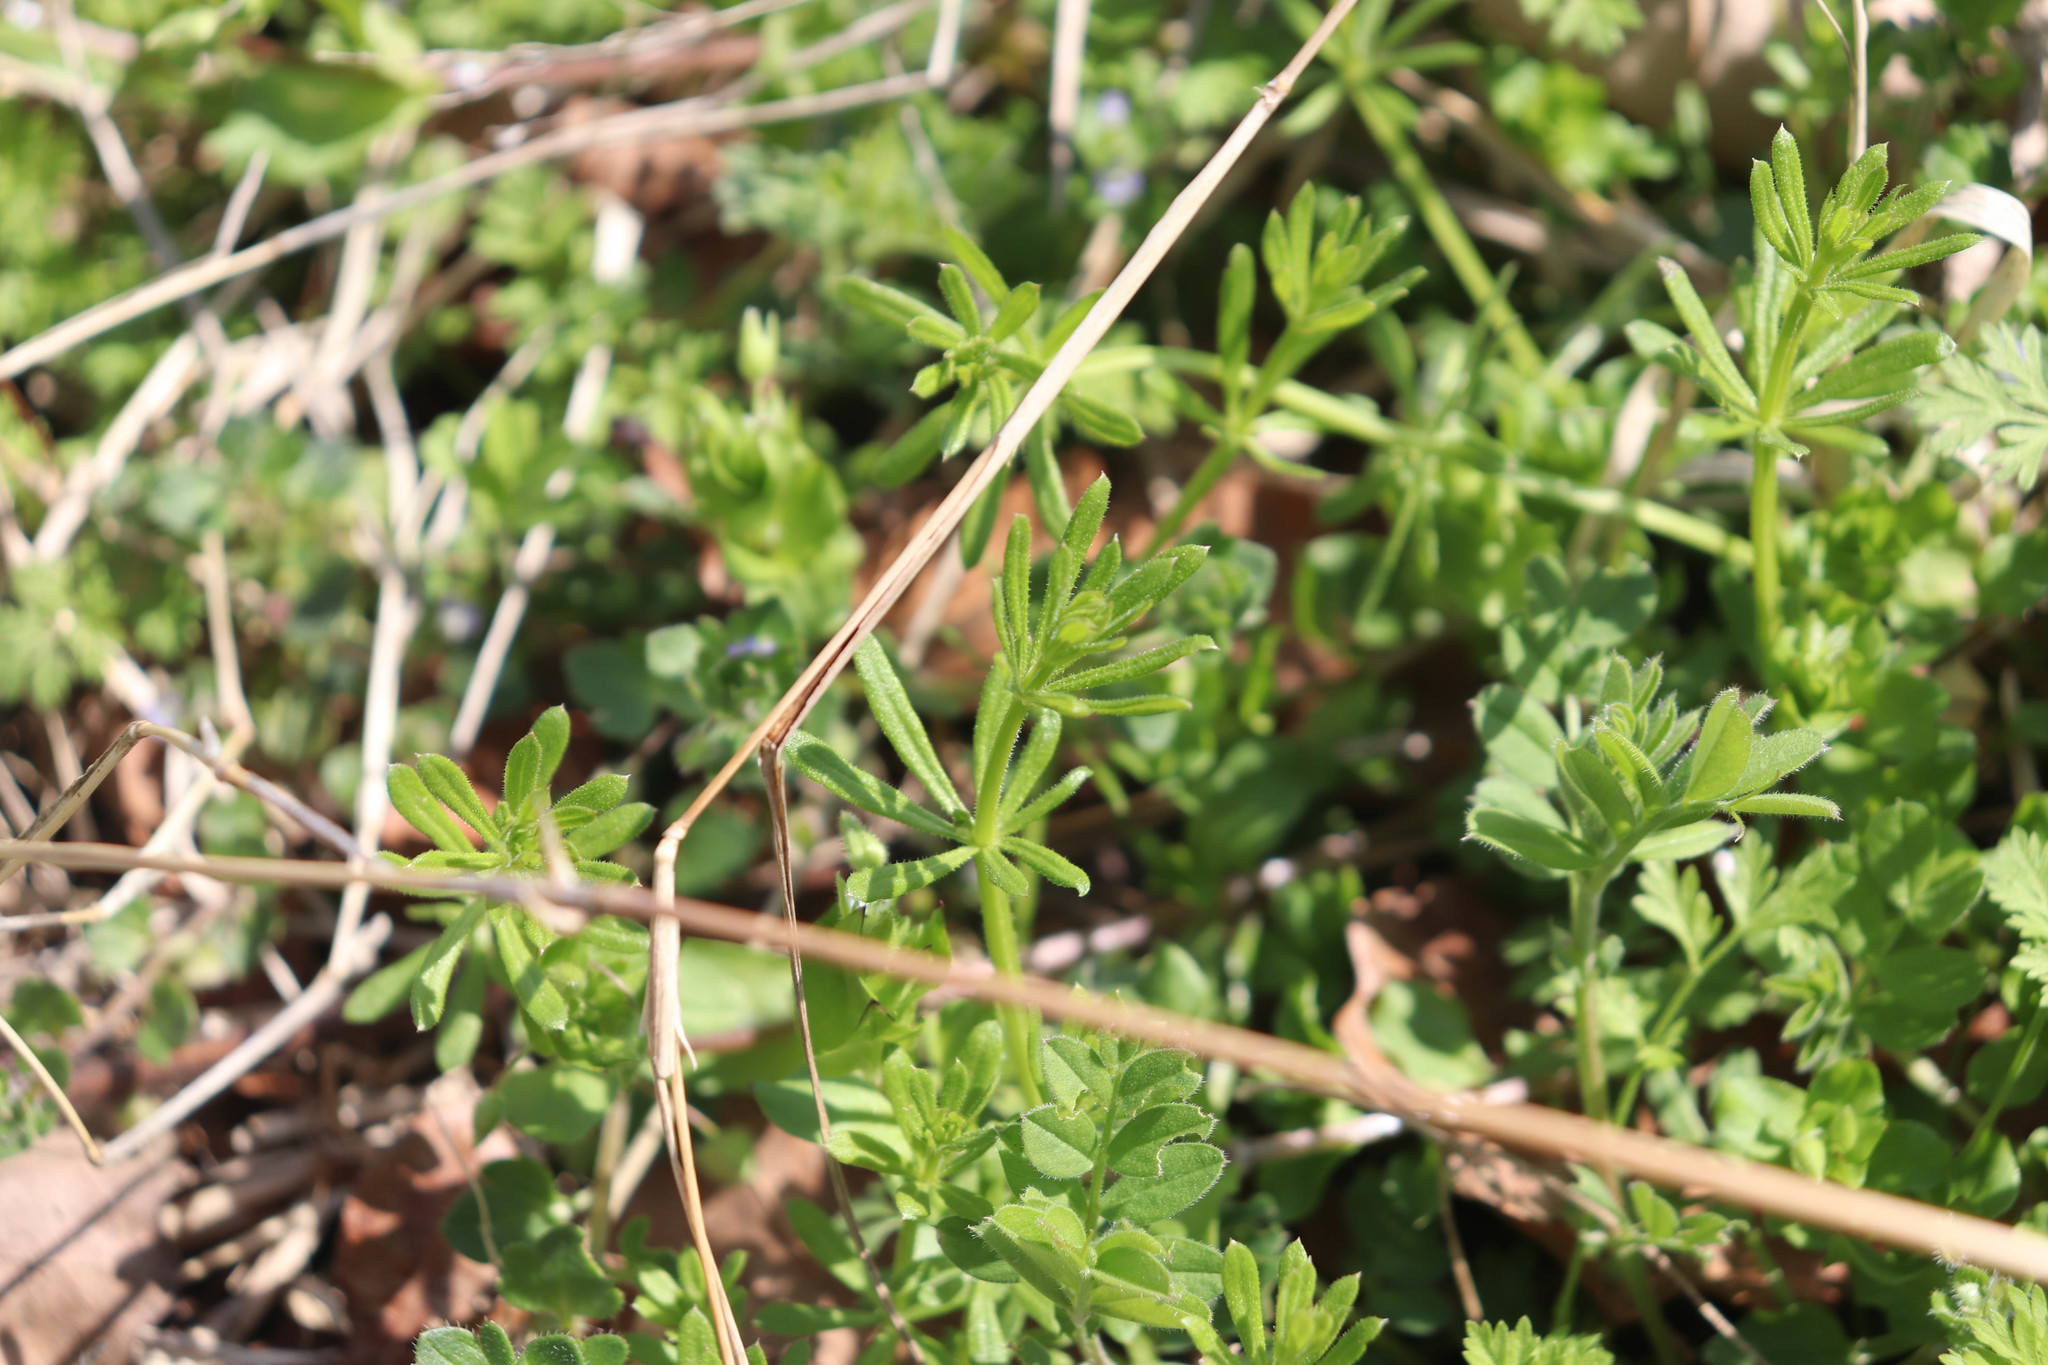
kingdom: Plantae
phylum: Tracheophyta
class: Magnoliopsida
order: Gentianales
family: Rubiaceae
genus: Galium
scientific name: Galium aparine
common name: Cleavers
